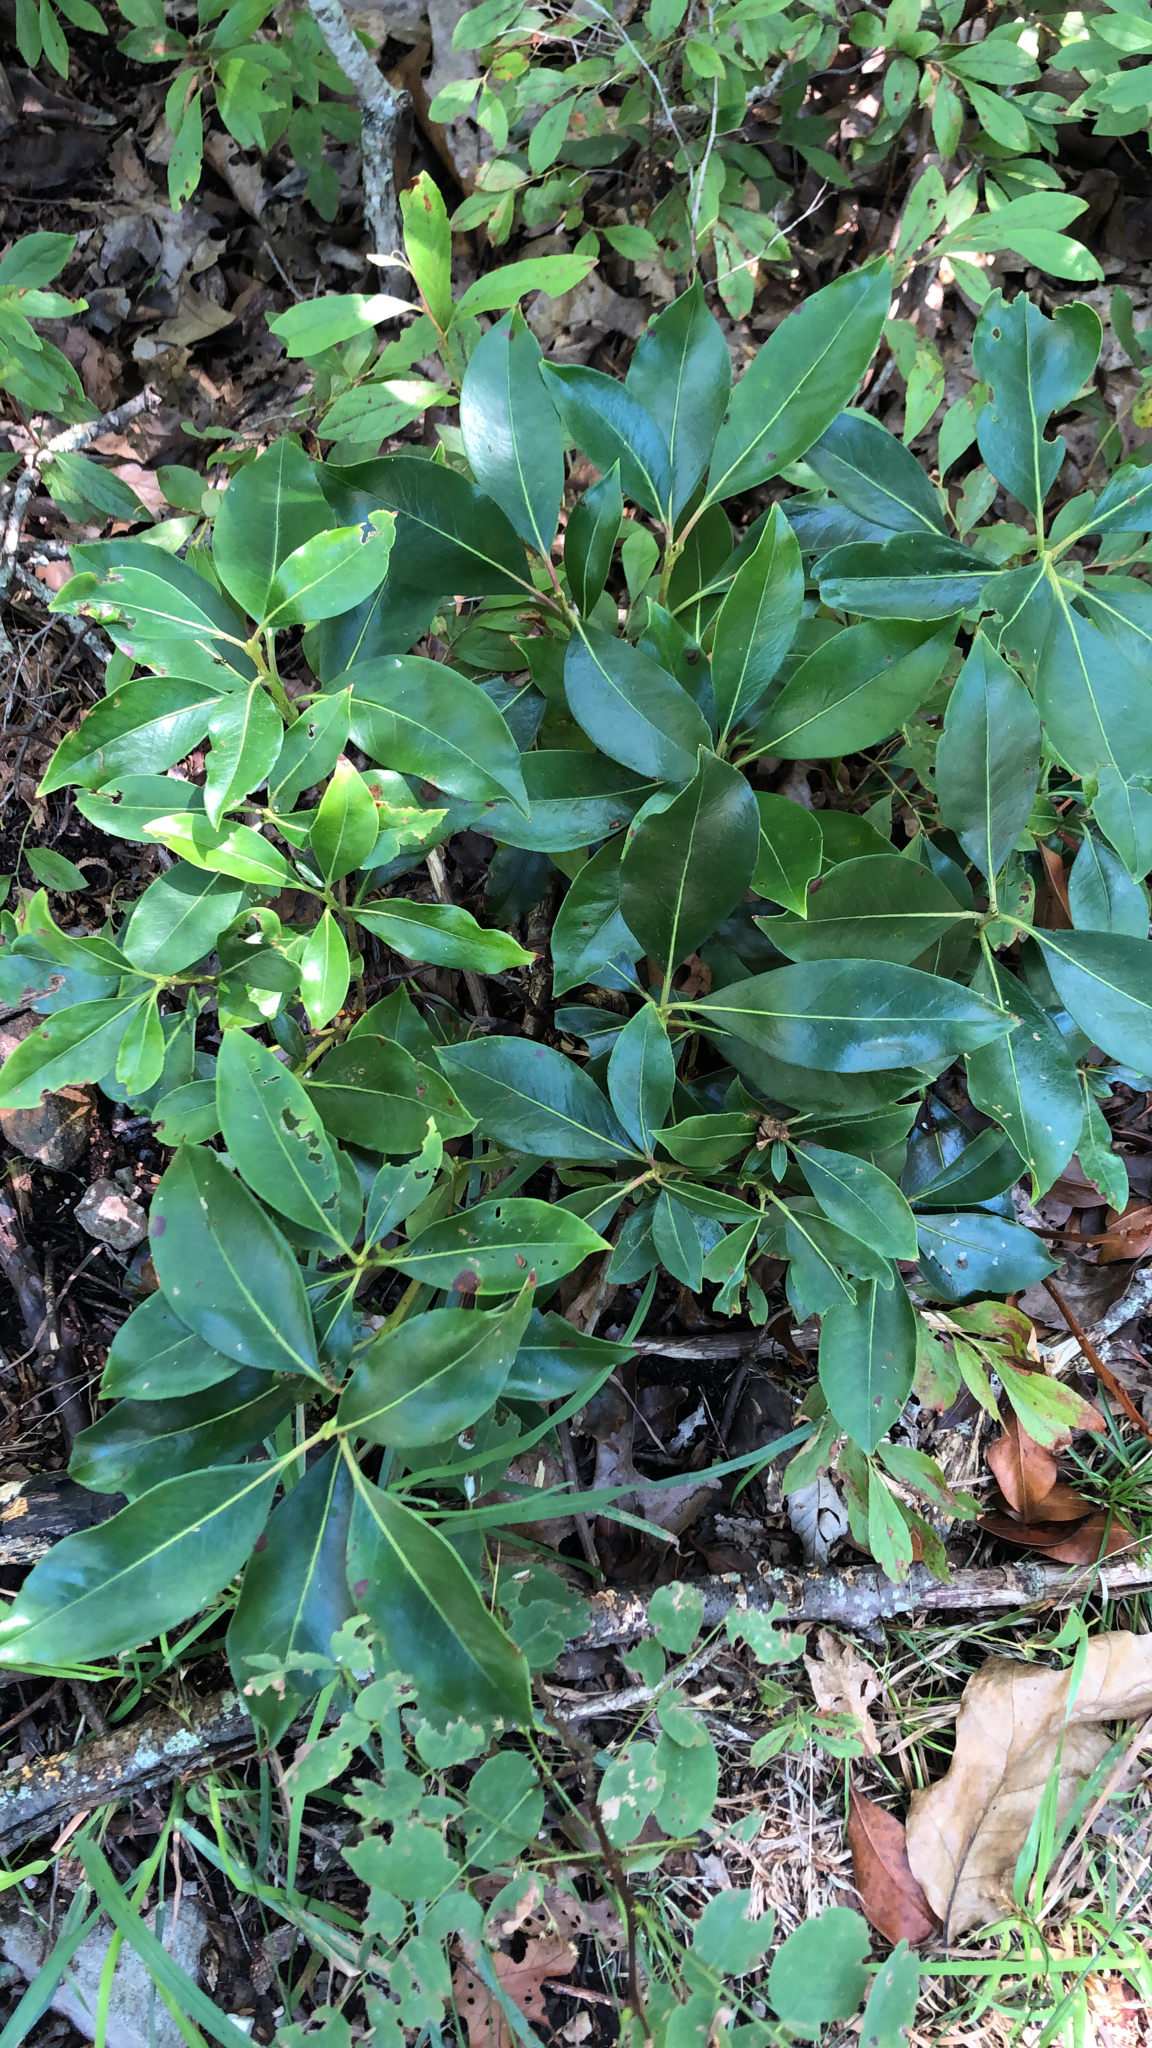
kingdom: Plantae
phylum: Tracheophyta
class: Magnoliopsida
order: Ericales
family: Ericaceae
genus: Kalmia
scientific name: Kalmia latifolia
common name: Mountain-laurel
